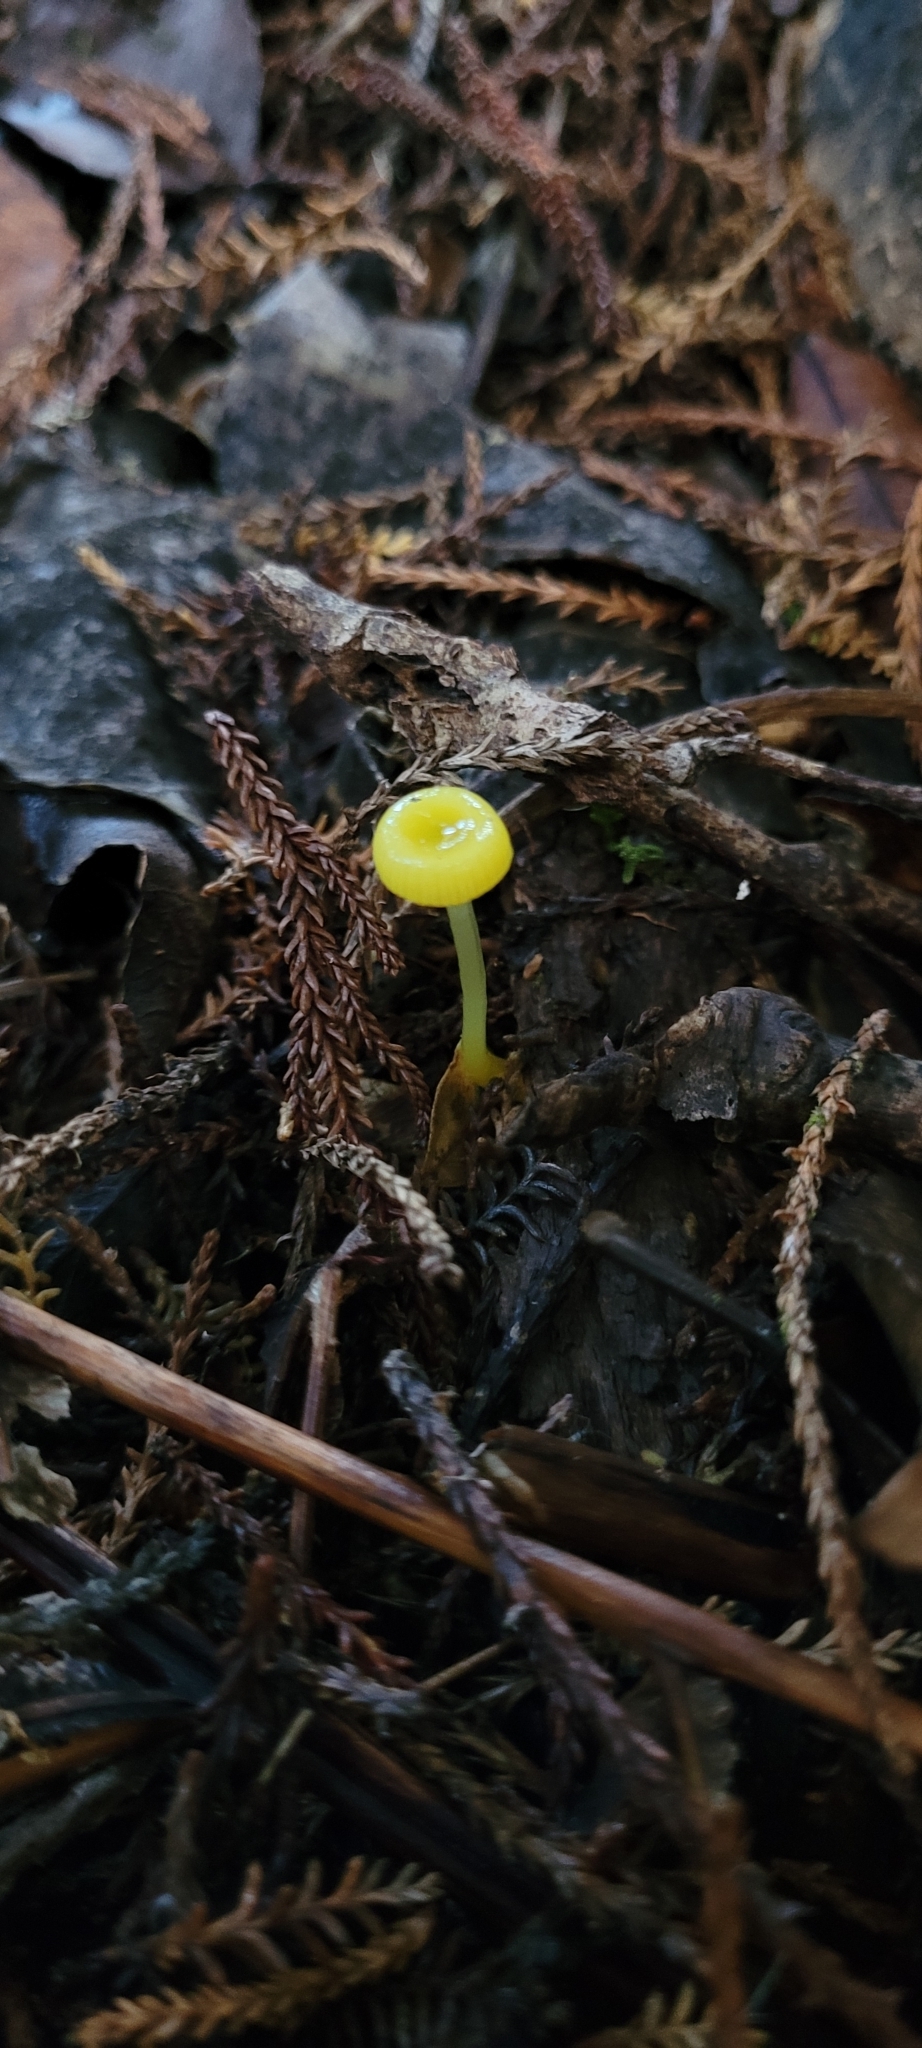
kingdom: Fungi
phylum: Basidiomycota
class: Agaricomycetes
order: Agaricales
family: Hygrophoraceae
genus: Gloioxanthomyces
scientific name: Gloioxanthomyces
